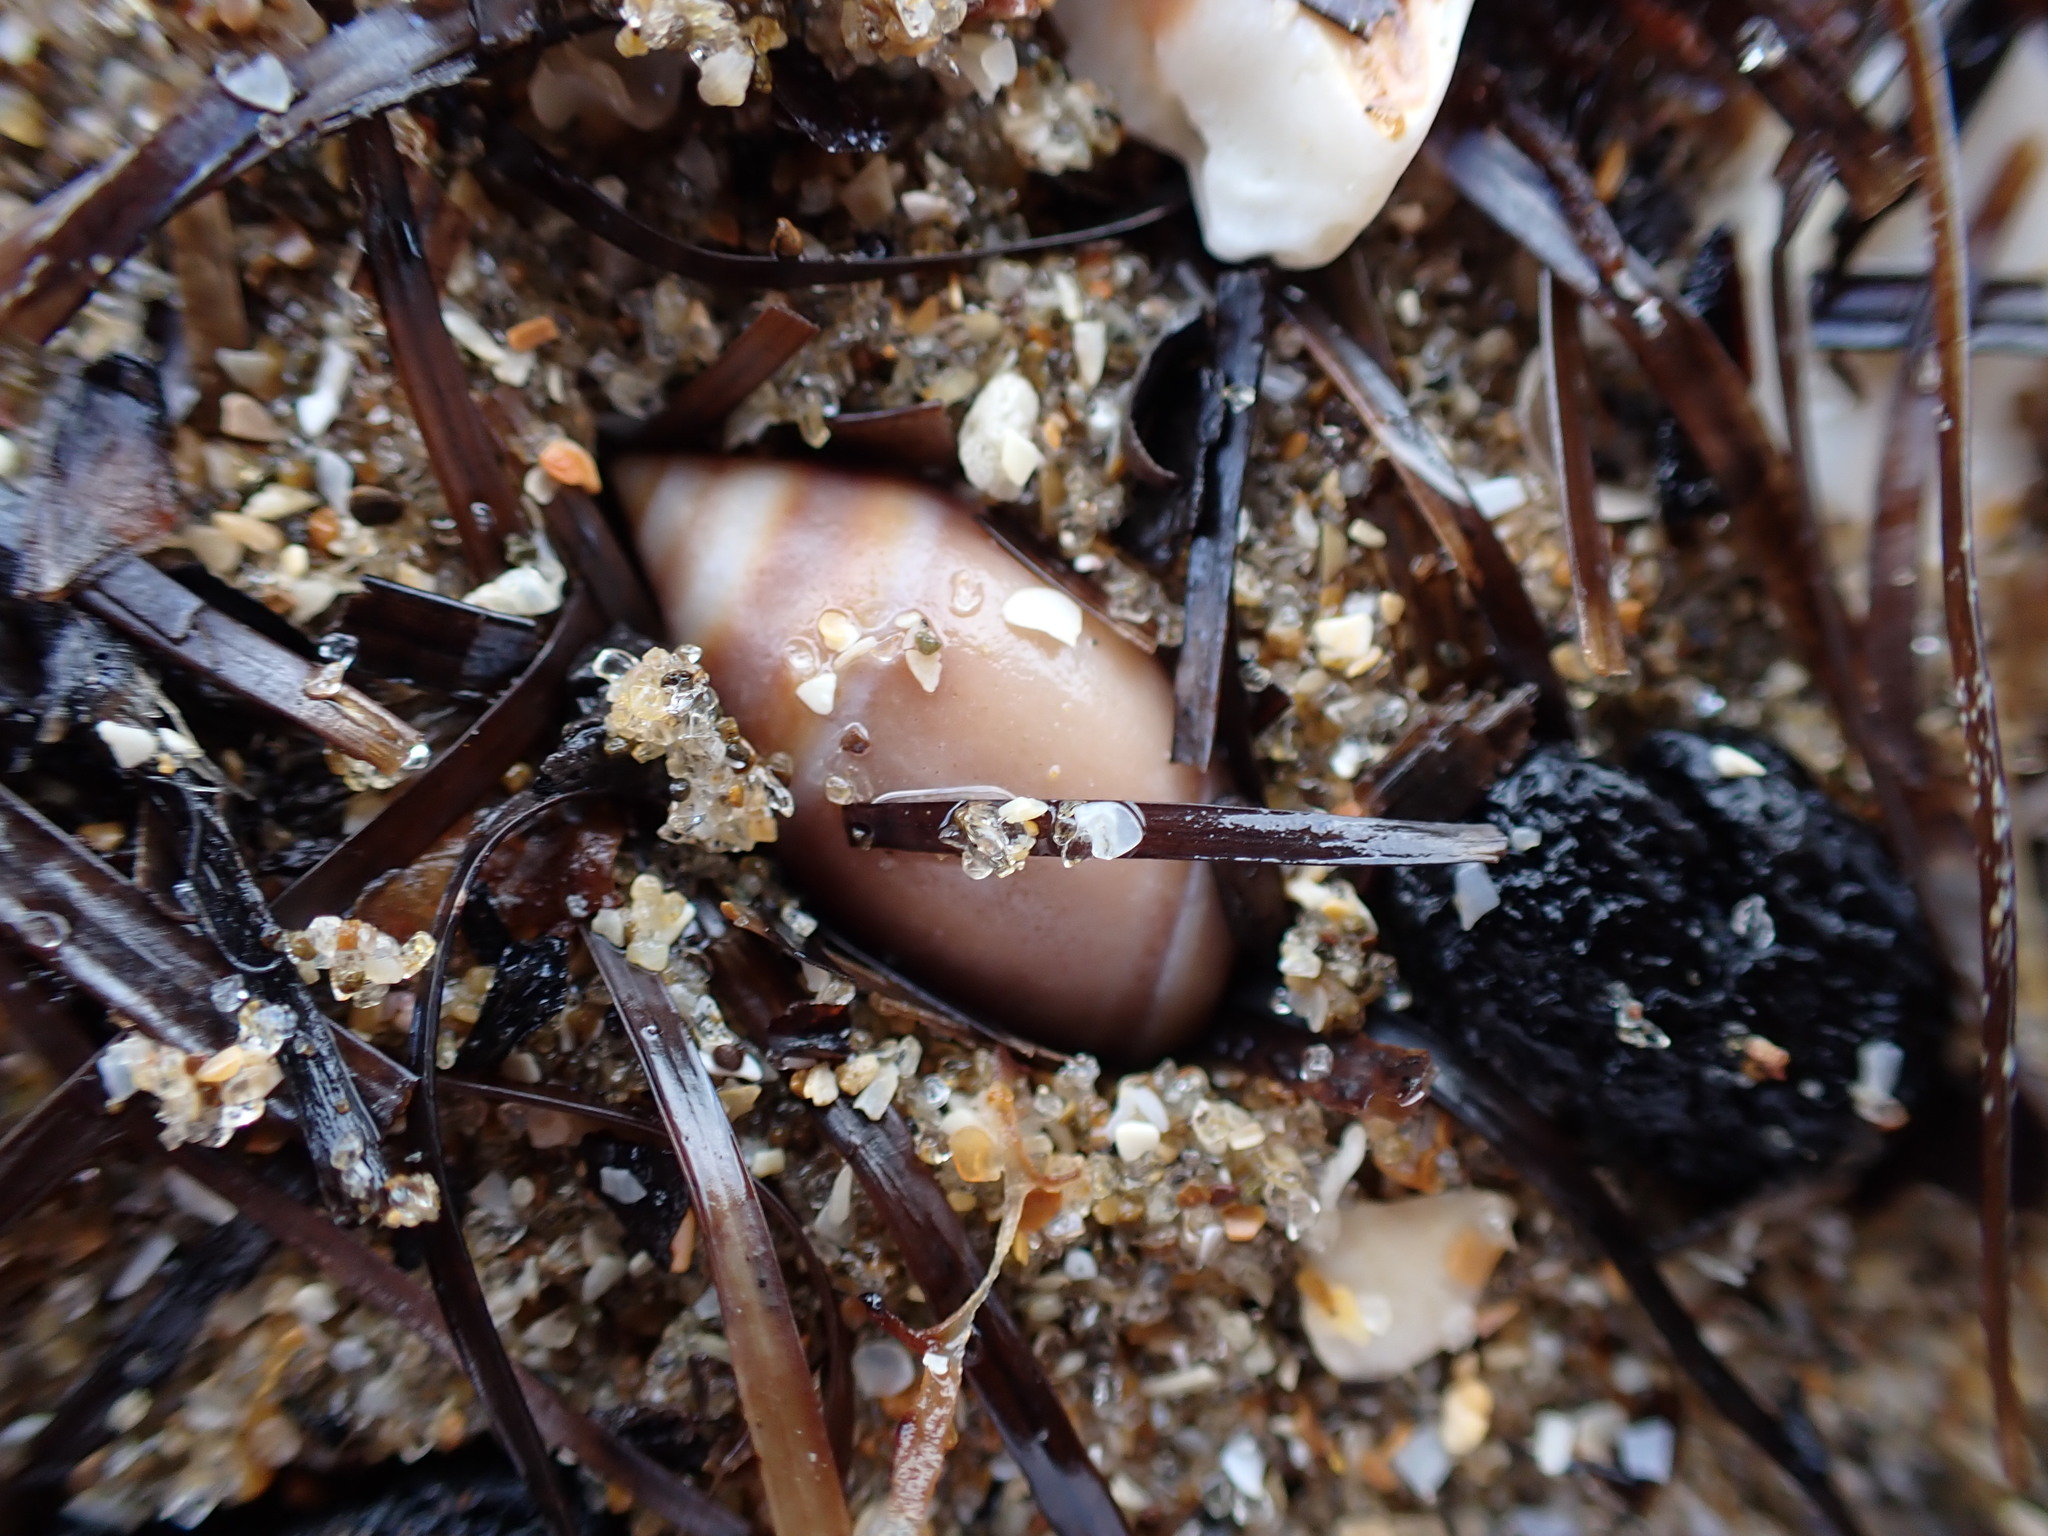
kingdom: Animalia
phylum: Mollusca
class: Gastropoda
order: Neogastropoda
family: Ancillariidae
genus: Amalda
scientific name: Amalda australis
